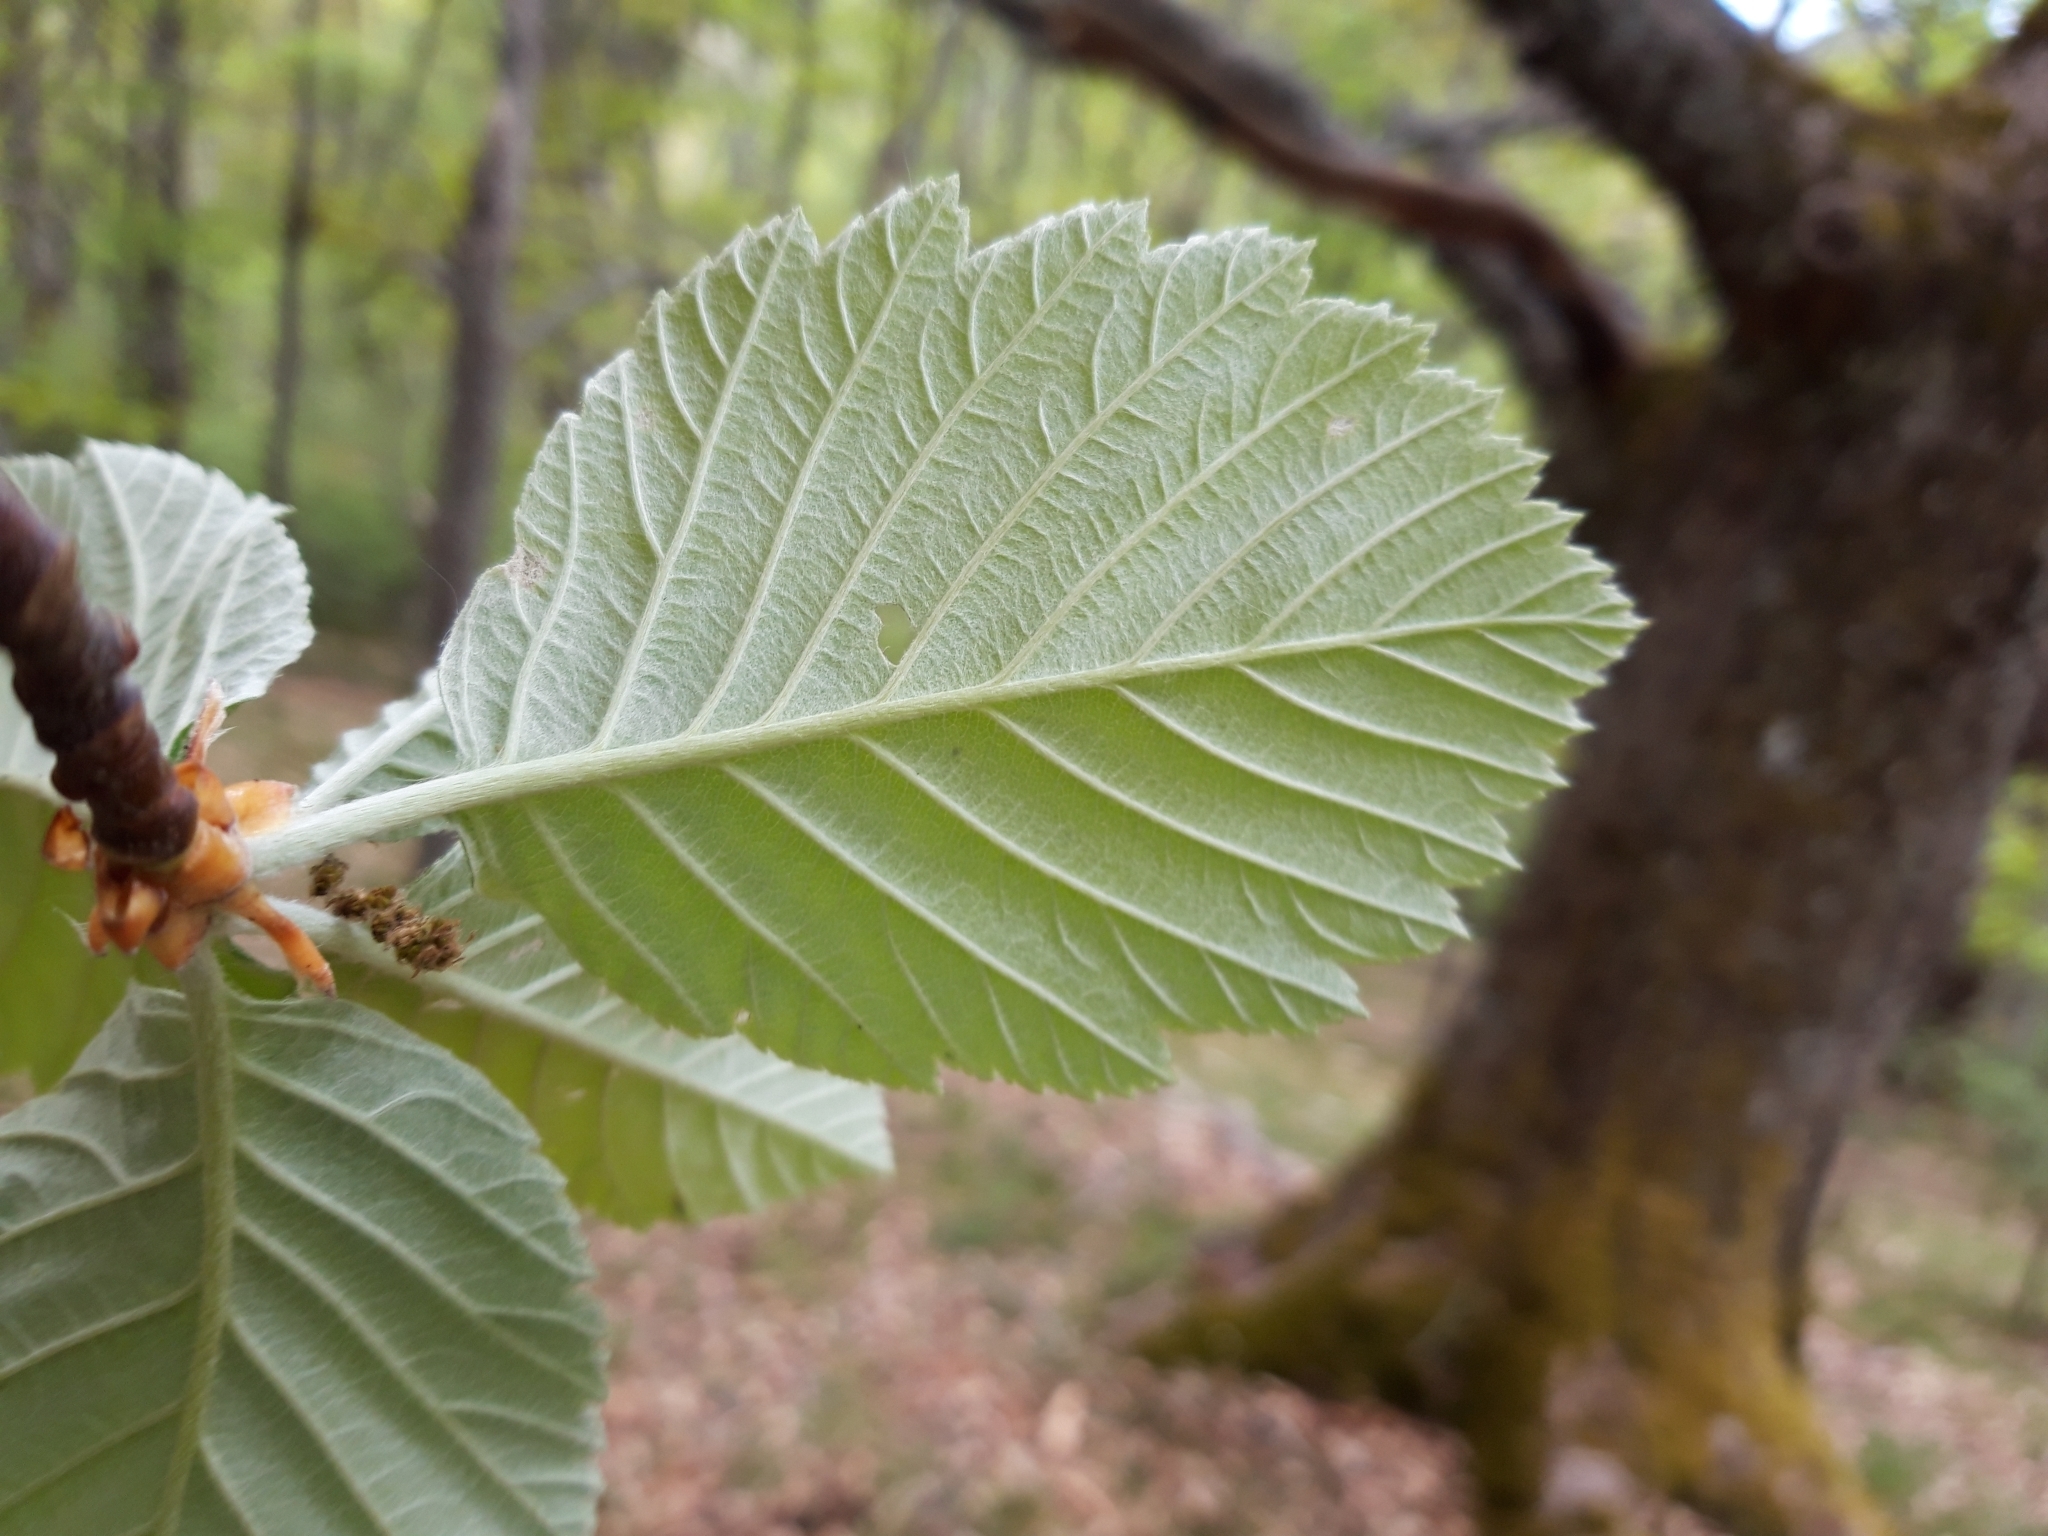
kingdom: Plantae
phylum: Tracheophyta
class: Magnoliopsida
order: Rosales
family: Rosaceae
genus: Aria
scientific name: Aria edulis
